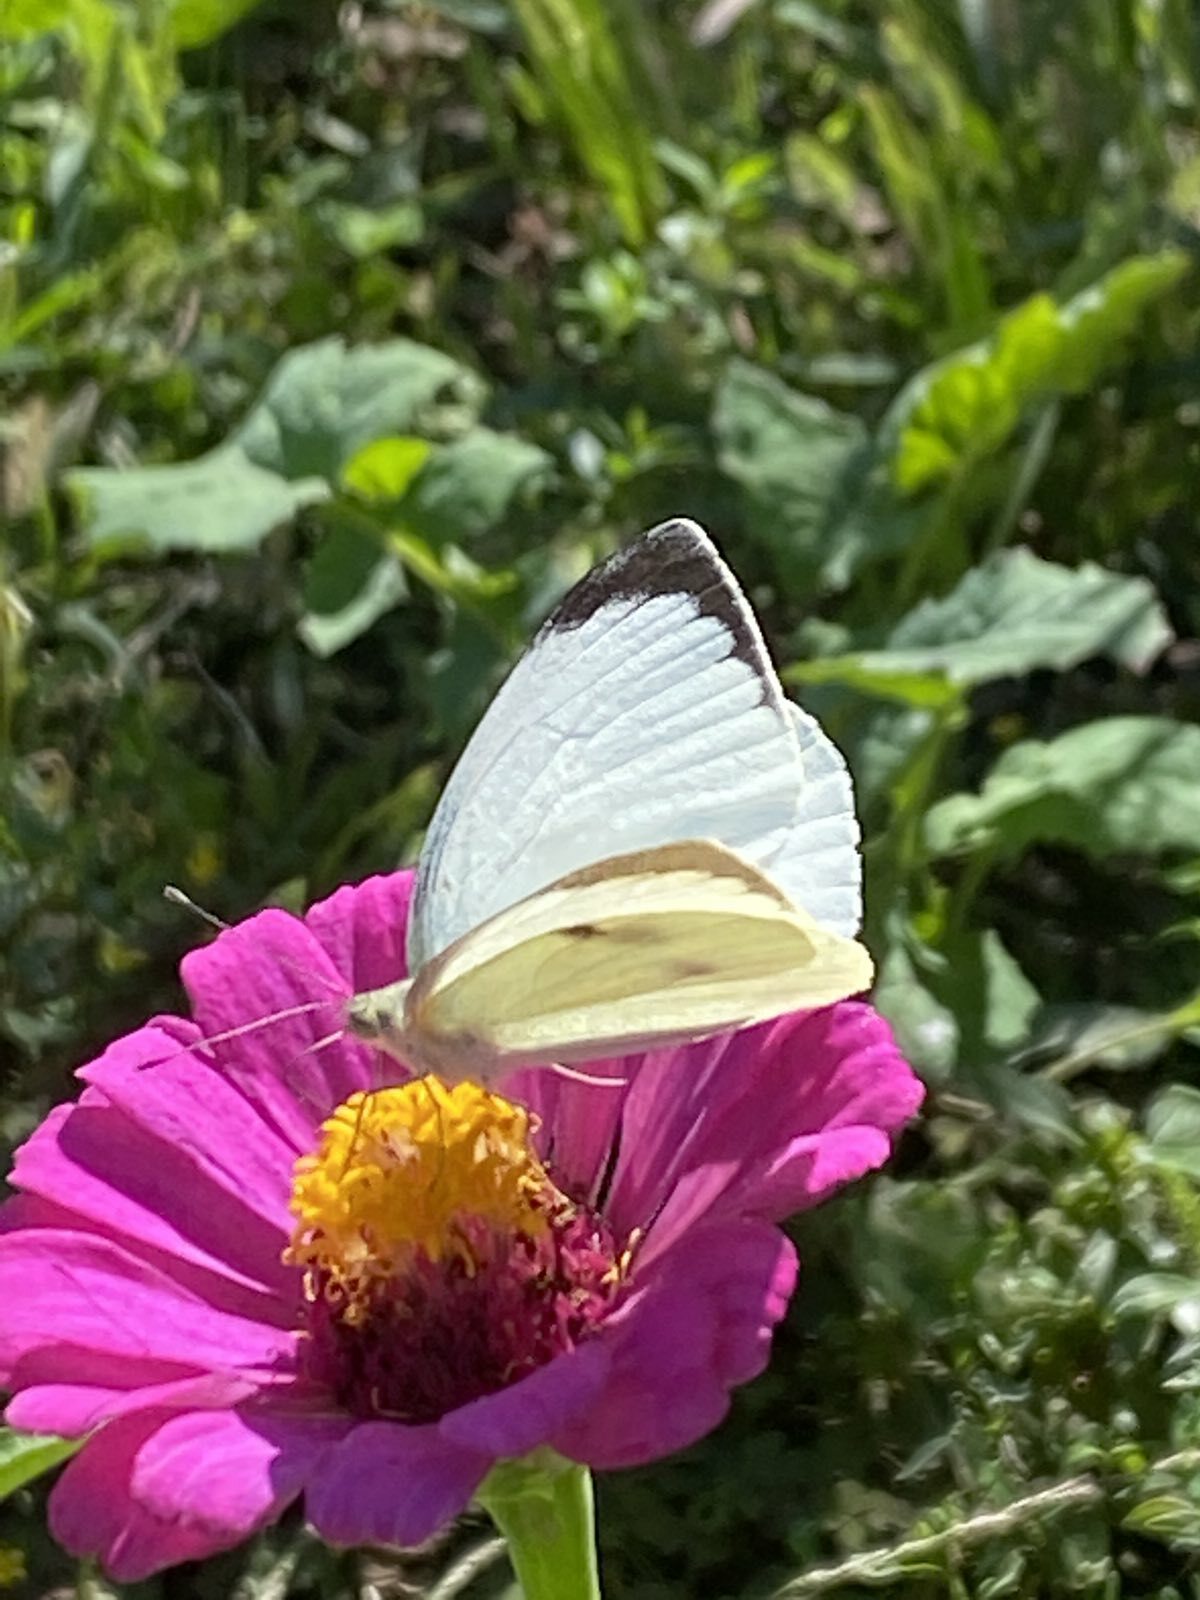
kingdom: Animalia
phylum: Arthropoda
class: Insecta
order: Lepidoptera
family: Pieridae
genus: Pieris
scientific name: Pieris brassicae
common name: Large white
